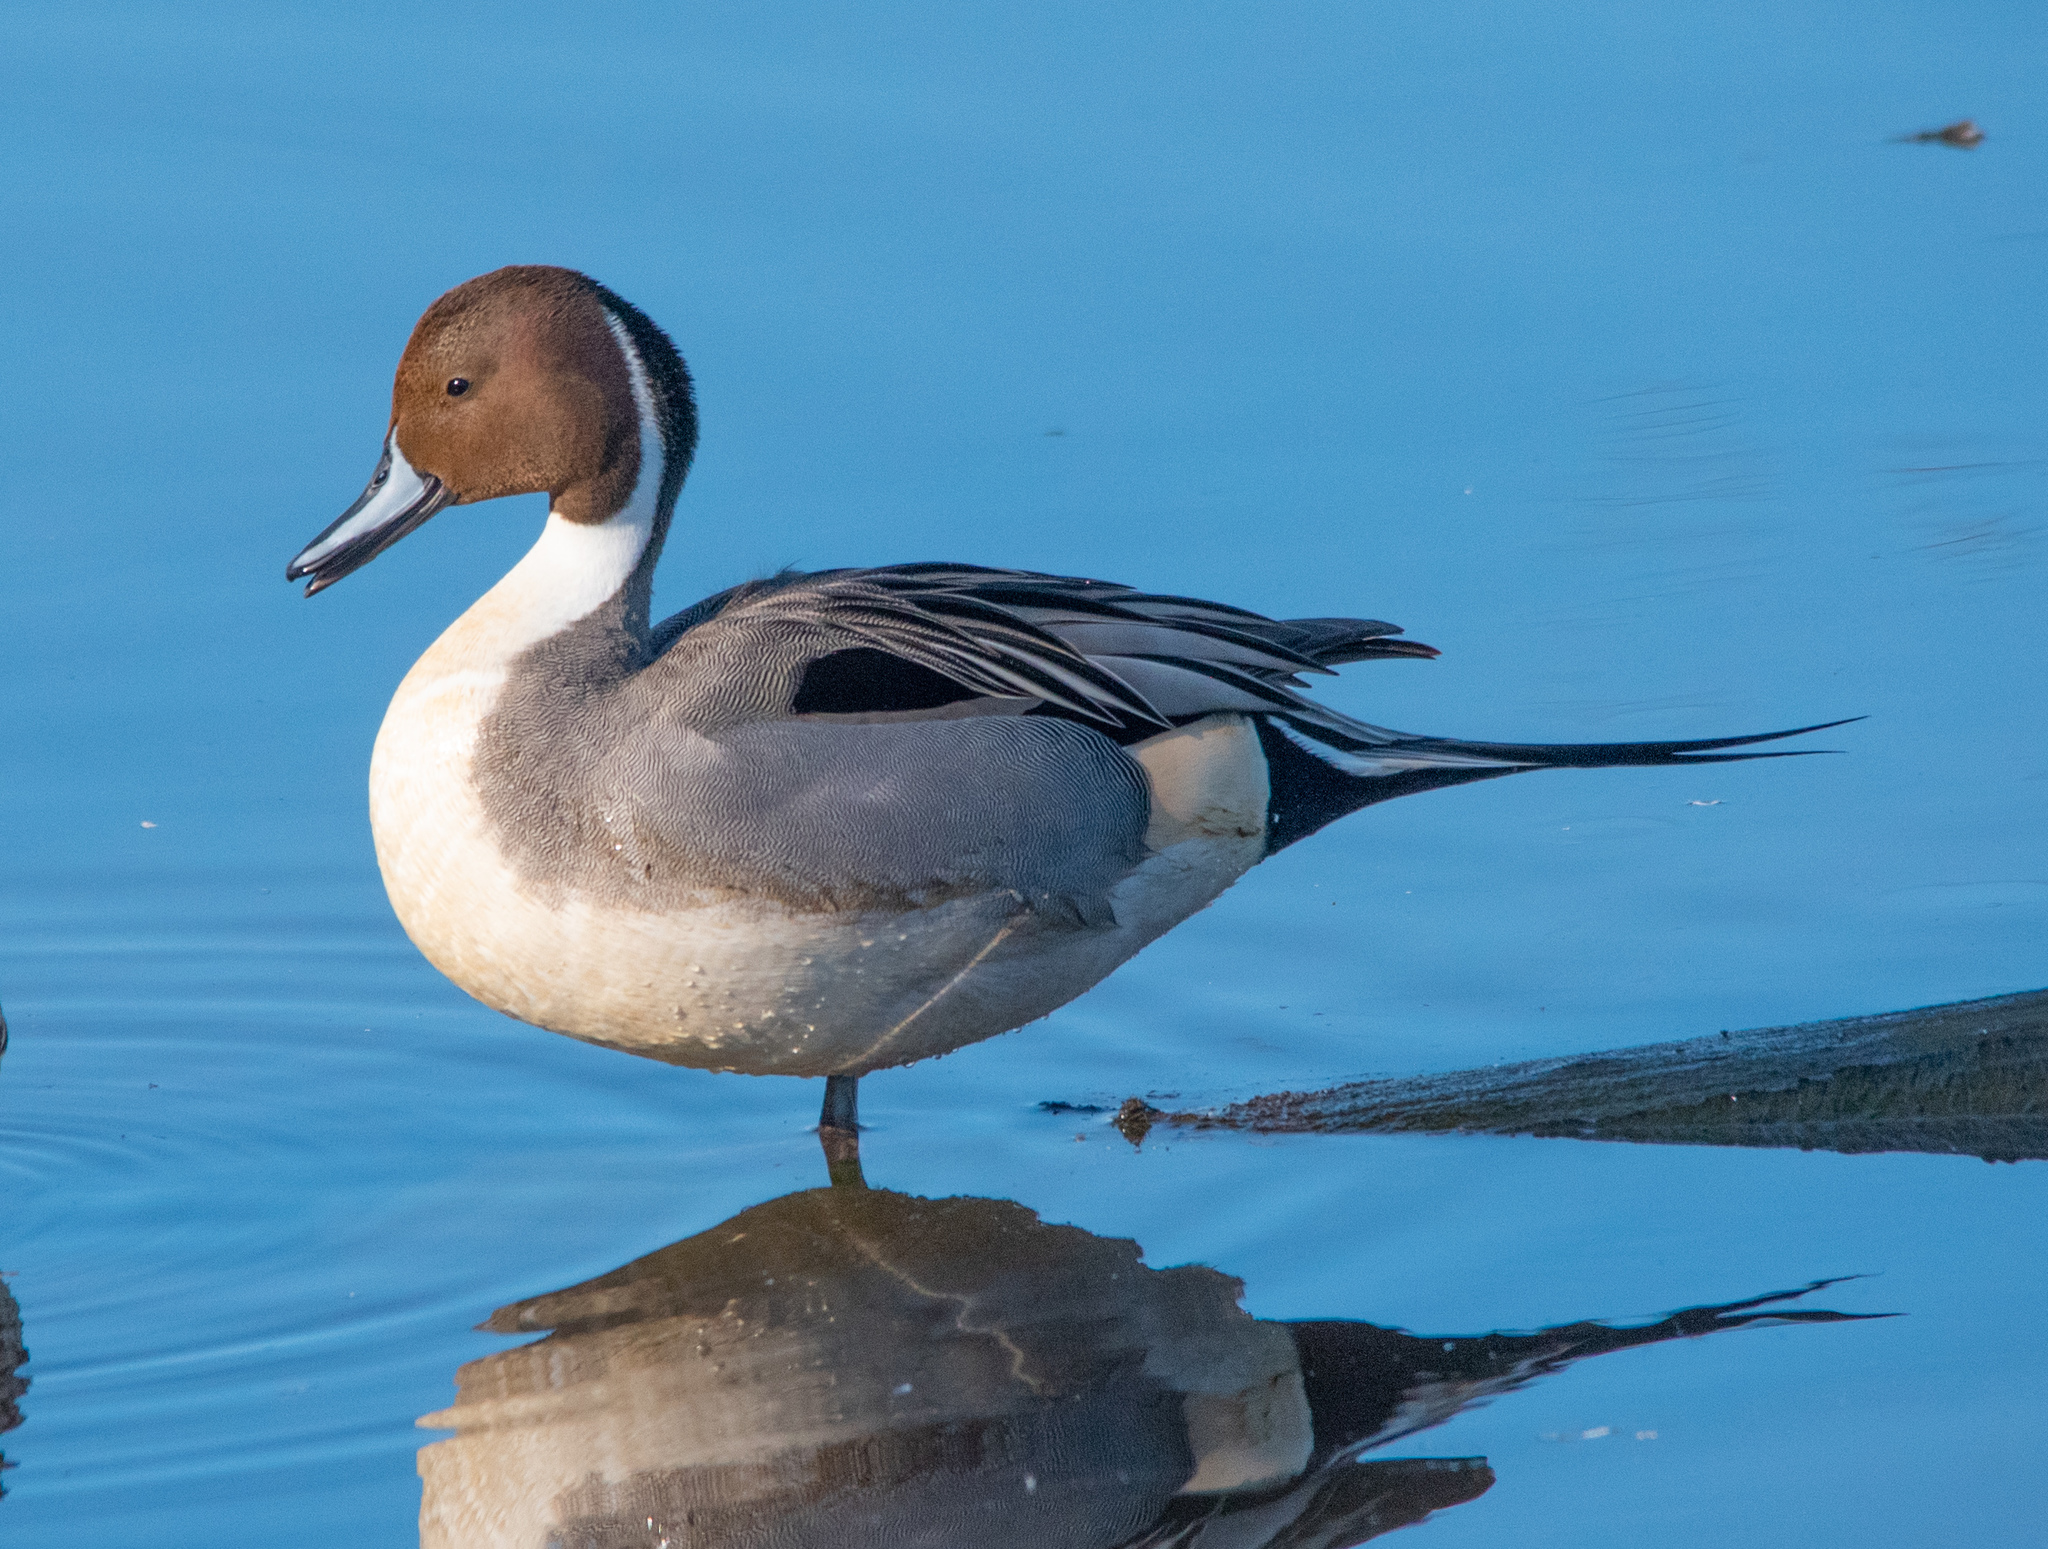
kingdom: Animalia
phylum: Chordata
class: Aves
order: Anseriformes
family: Anatidae
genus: Anas
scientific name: Anas acuta
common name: Northern pintail
